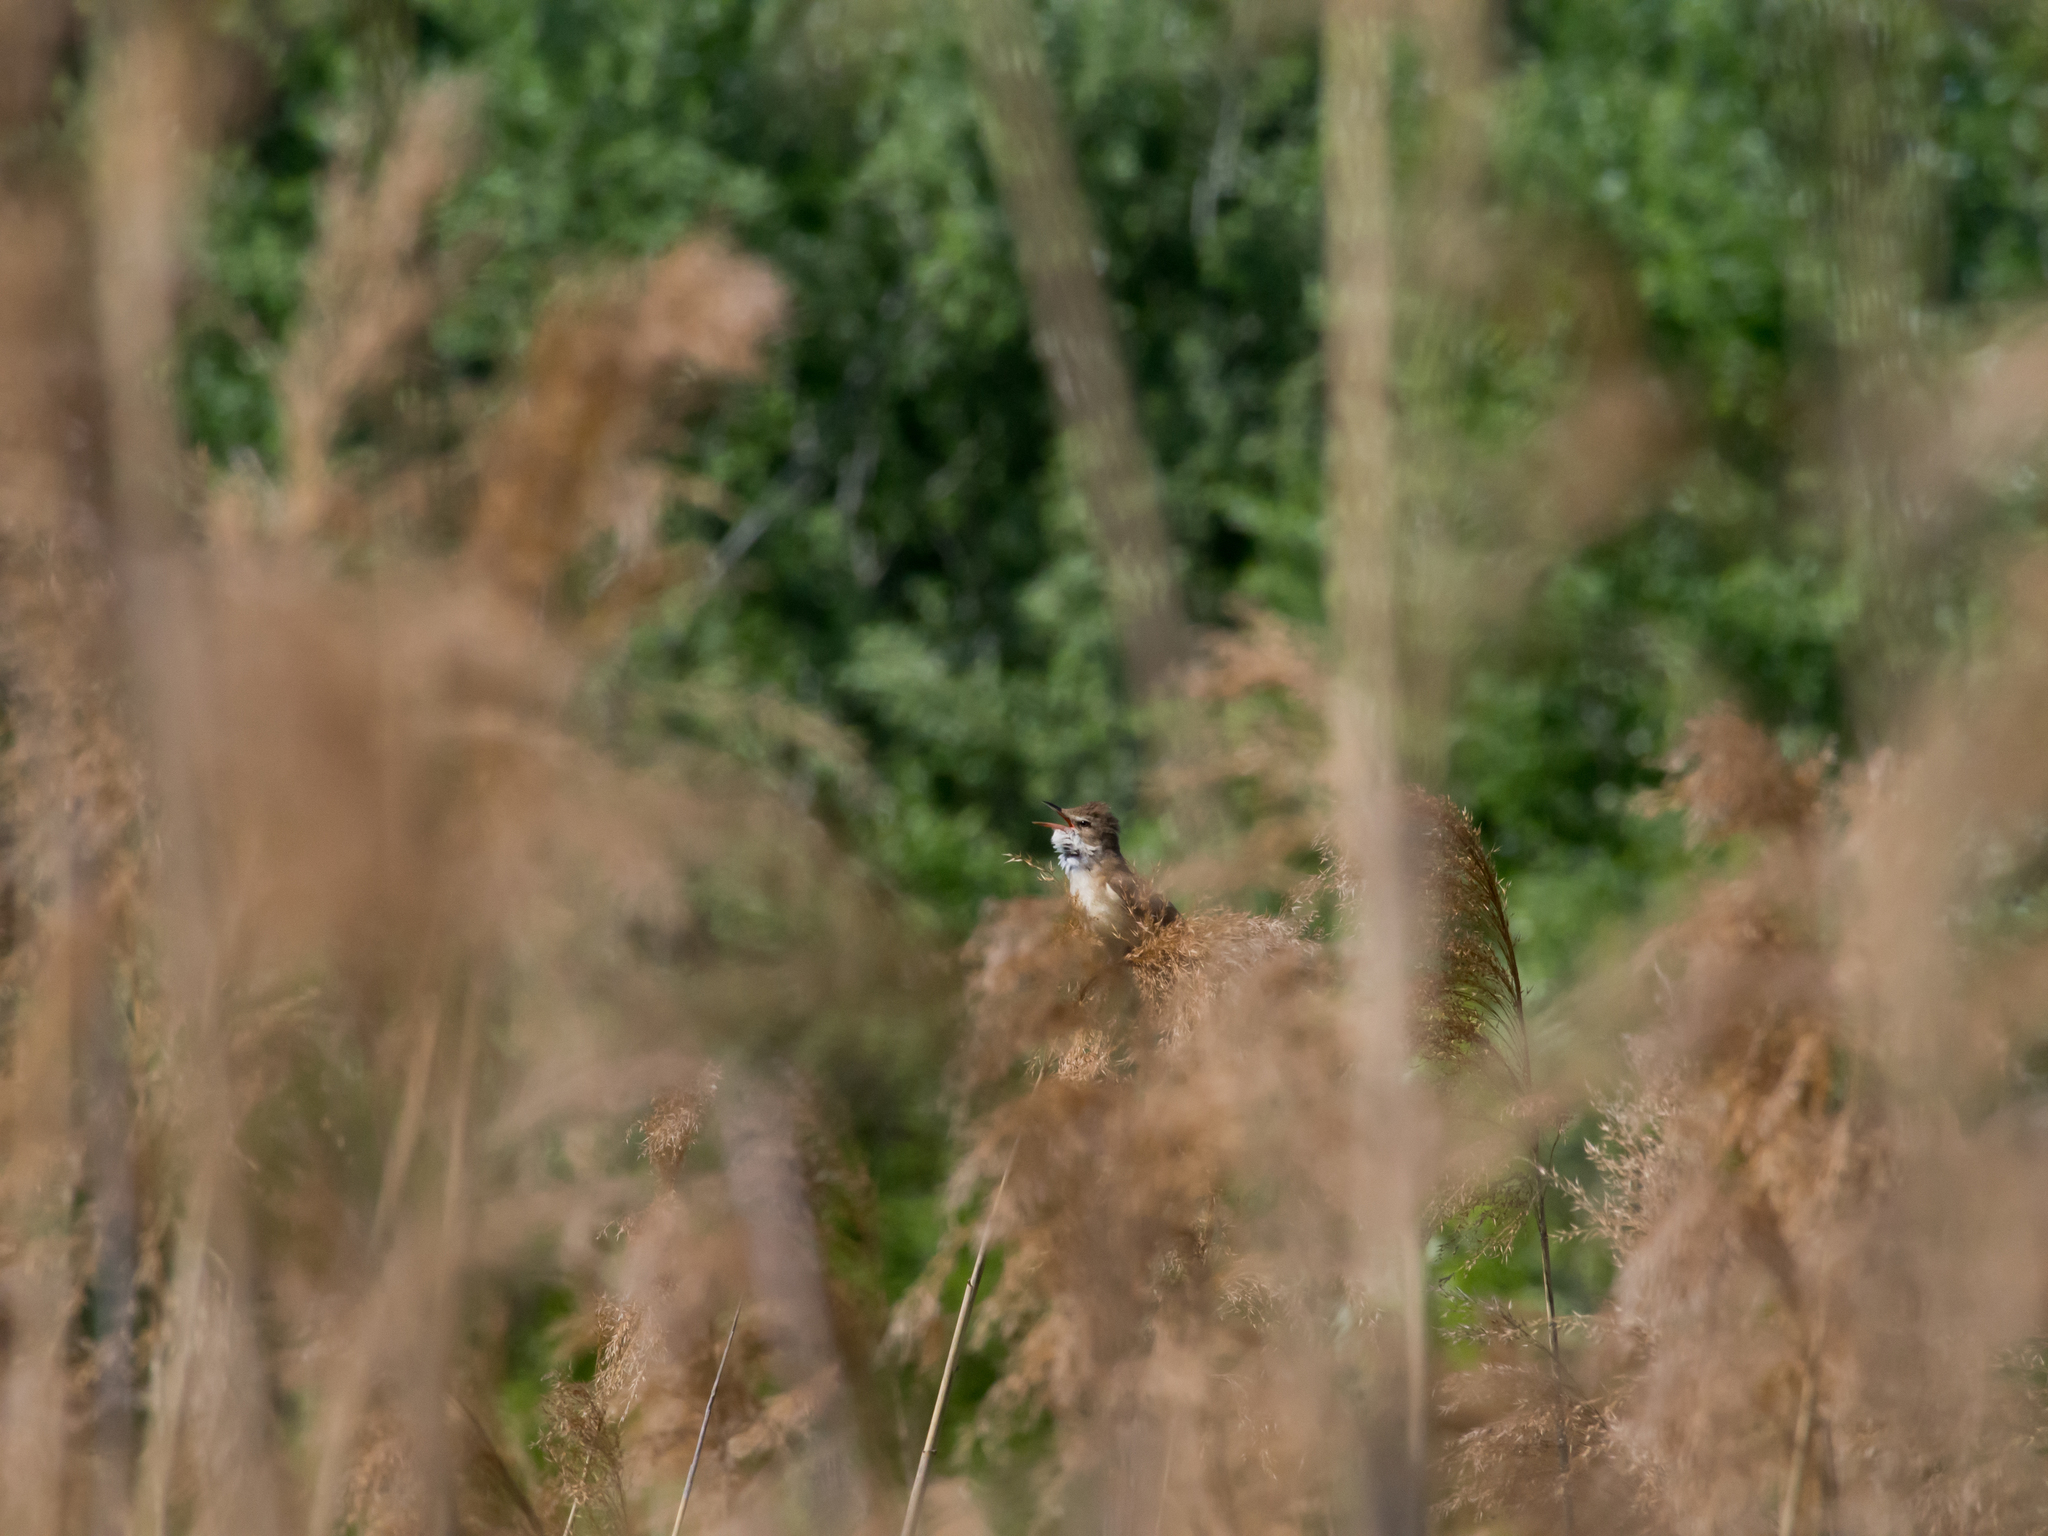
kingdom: Animalia
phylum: Chordata
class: Aves
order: Passeriformes
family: Acrocephalidae
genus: Acrocephalus
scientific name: Acrocephalus arundinaceus
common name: Great reed warbler
